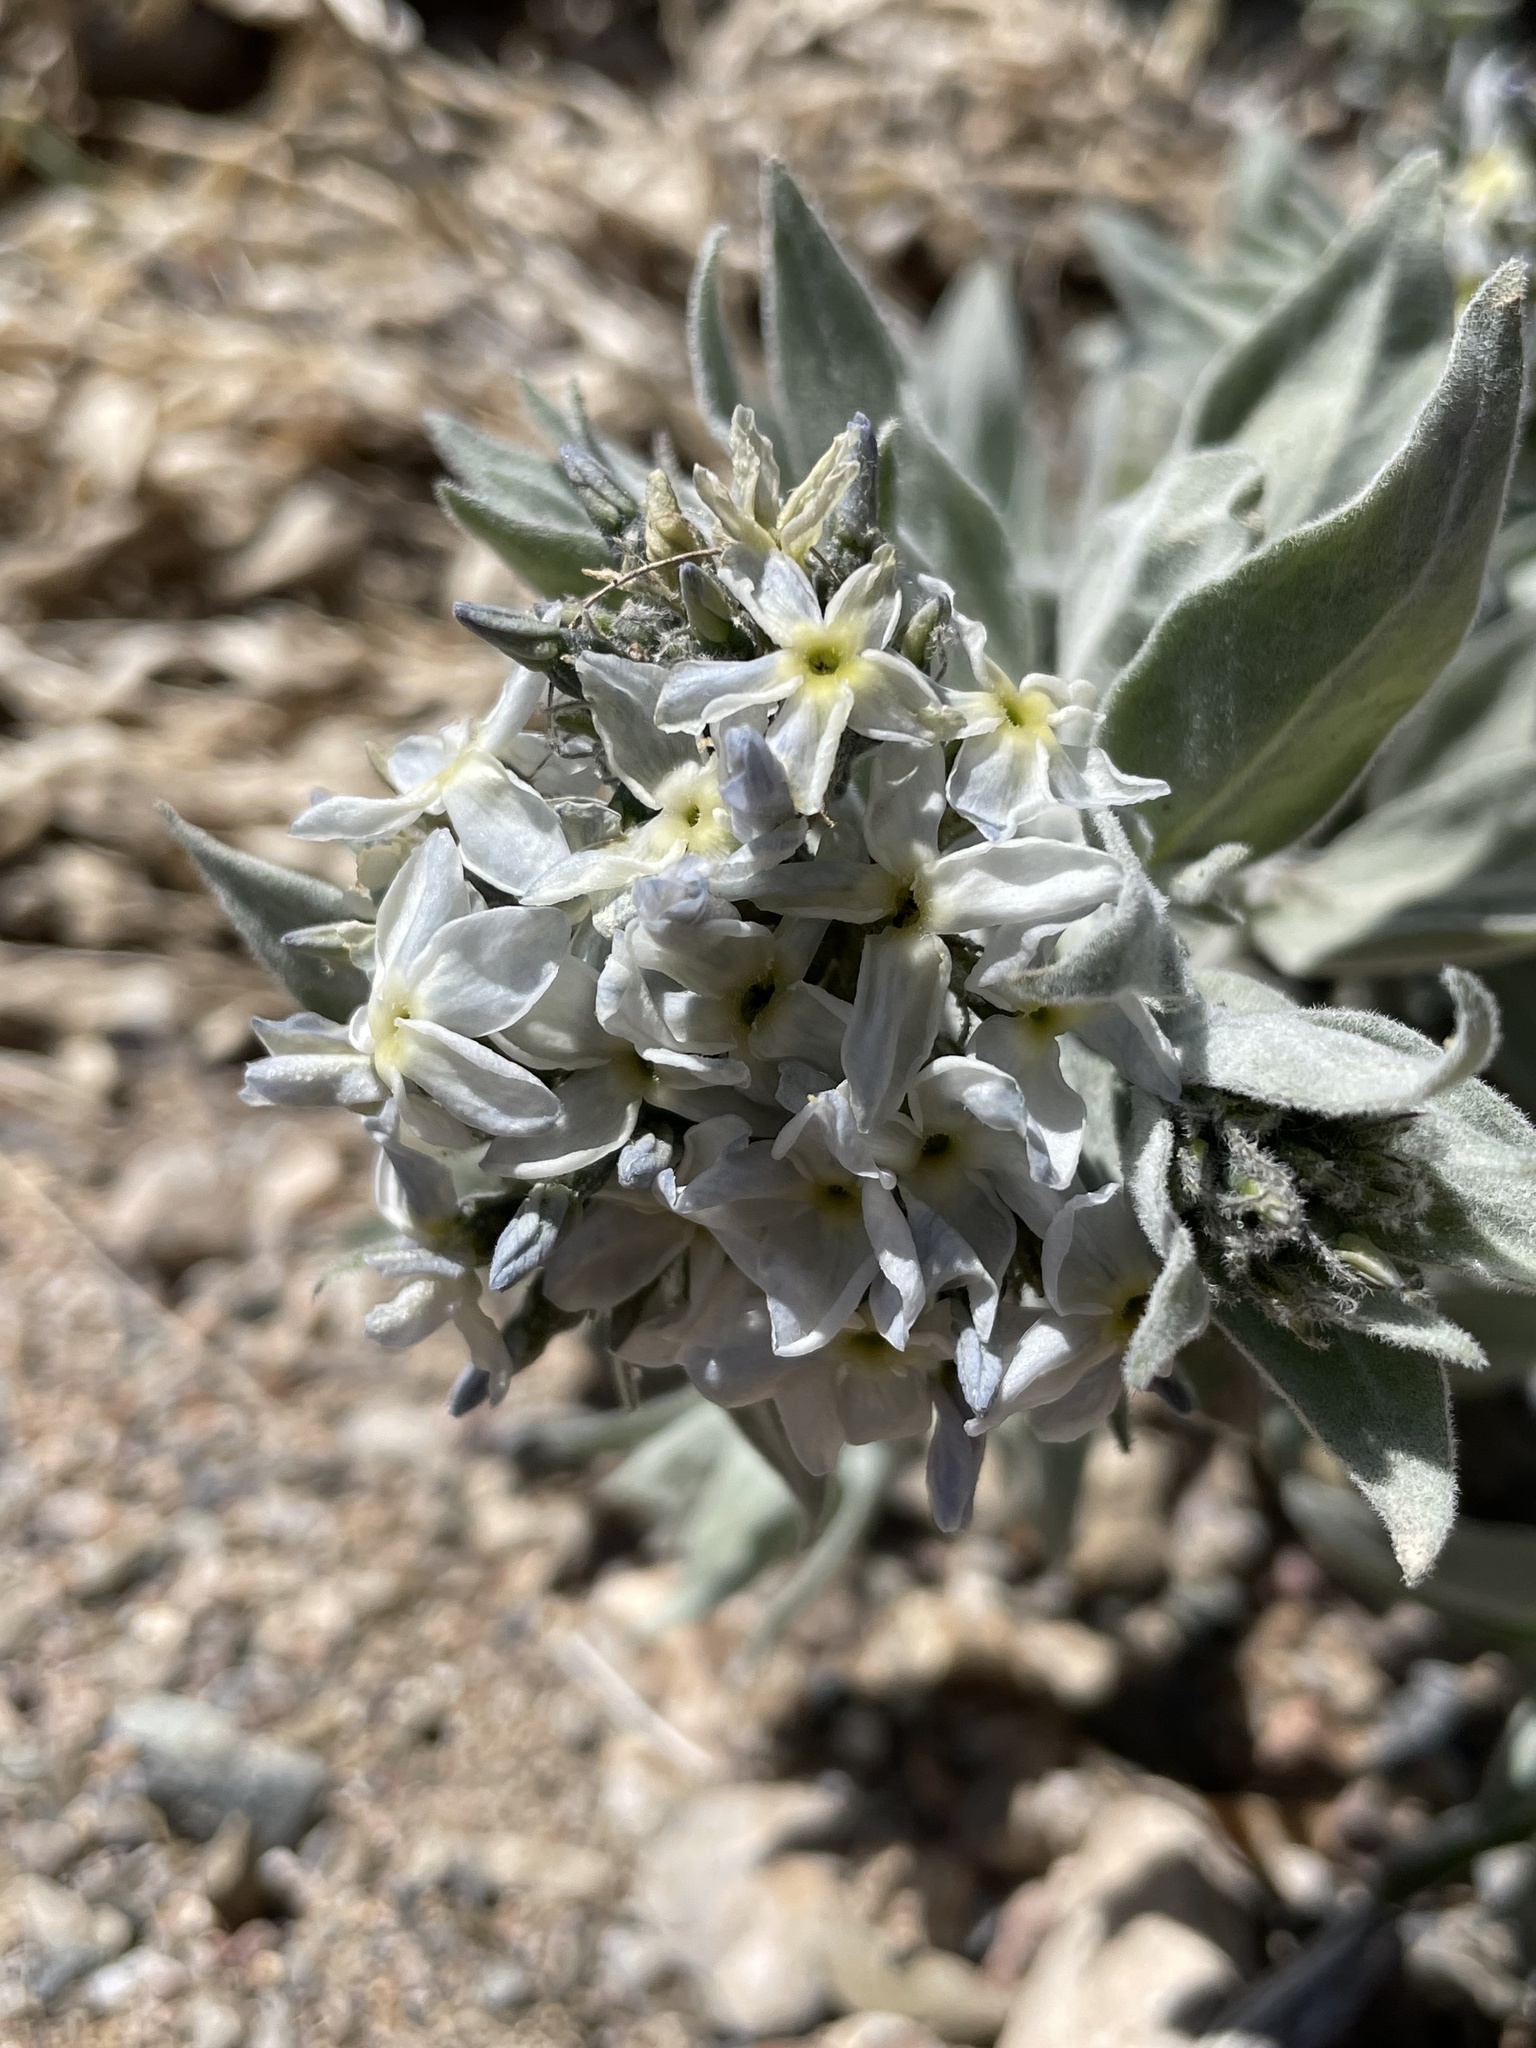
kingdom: Plantae
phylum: Tracheophyta
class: Magnoliopsida
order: Gentianales
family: Apocynaceae
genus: Amsonia
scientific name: Amsonia tomentosa
